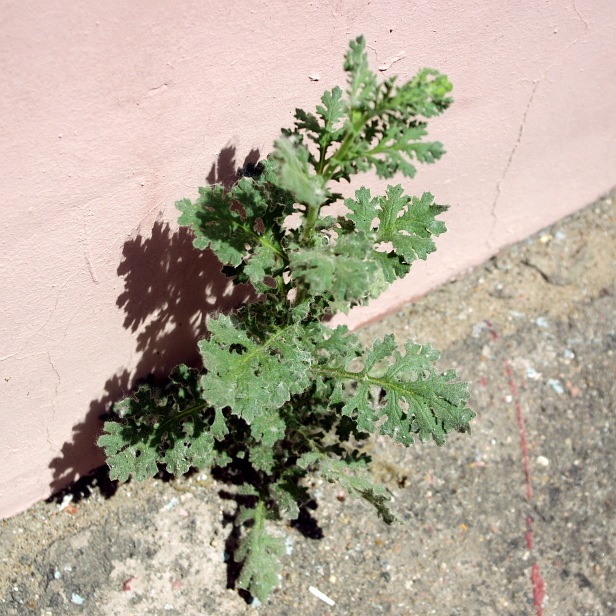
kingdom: Plantae
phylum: Tracheophyta
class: Magnoliopsida
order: Asterales
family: Asteraceae
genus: Senecio
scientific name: Senecio viscosus
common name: Sticky groundsel
